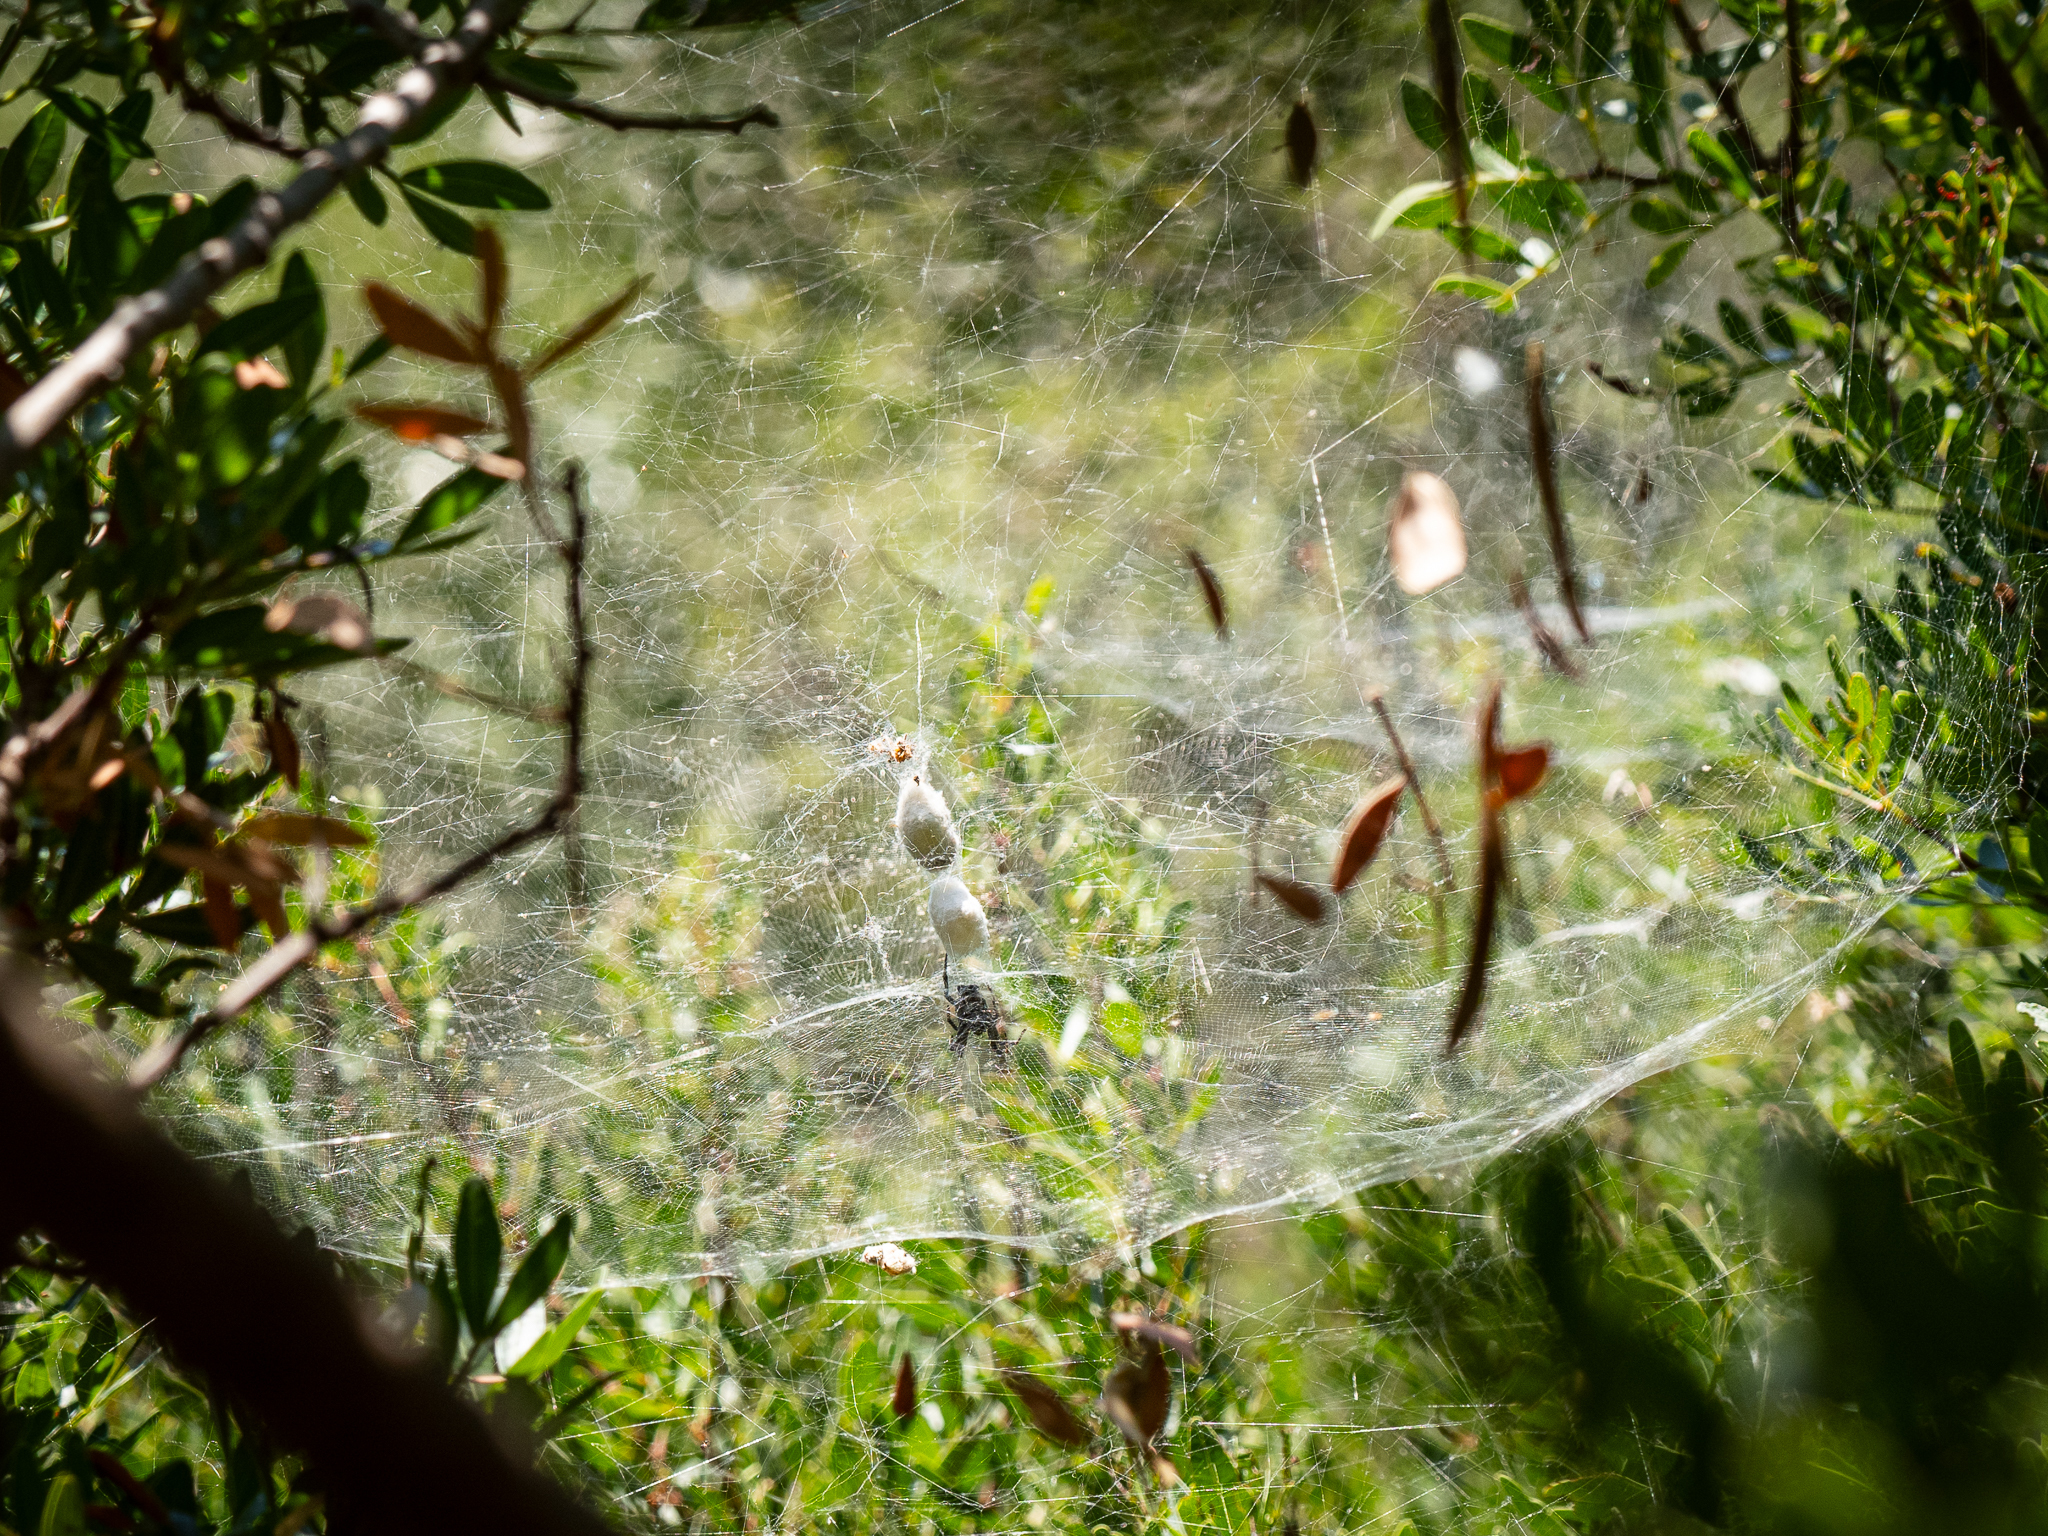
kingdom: Animalia
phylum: Arthropoda
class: Arachnida
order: Araneae
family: Araneidae
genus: Cyrtophora
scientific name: Cyrtophora citricola
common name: Orb weavers
